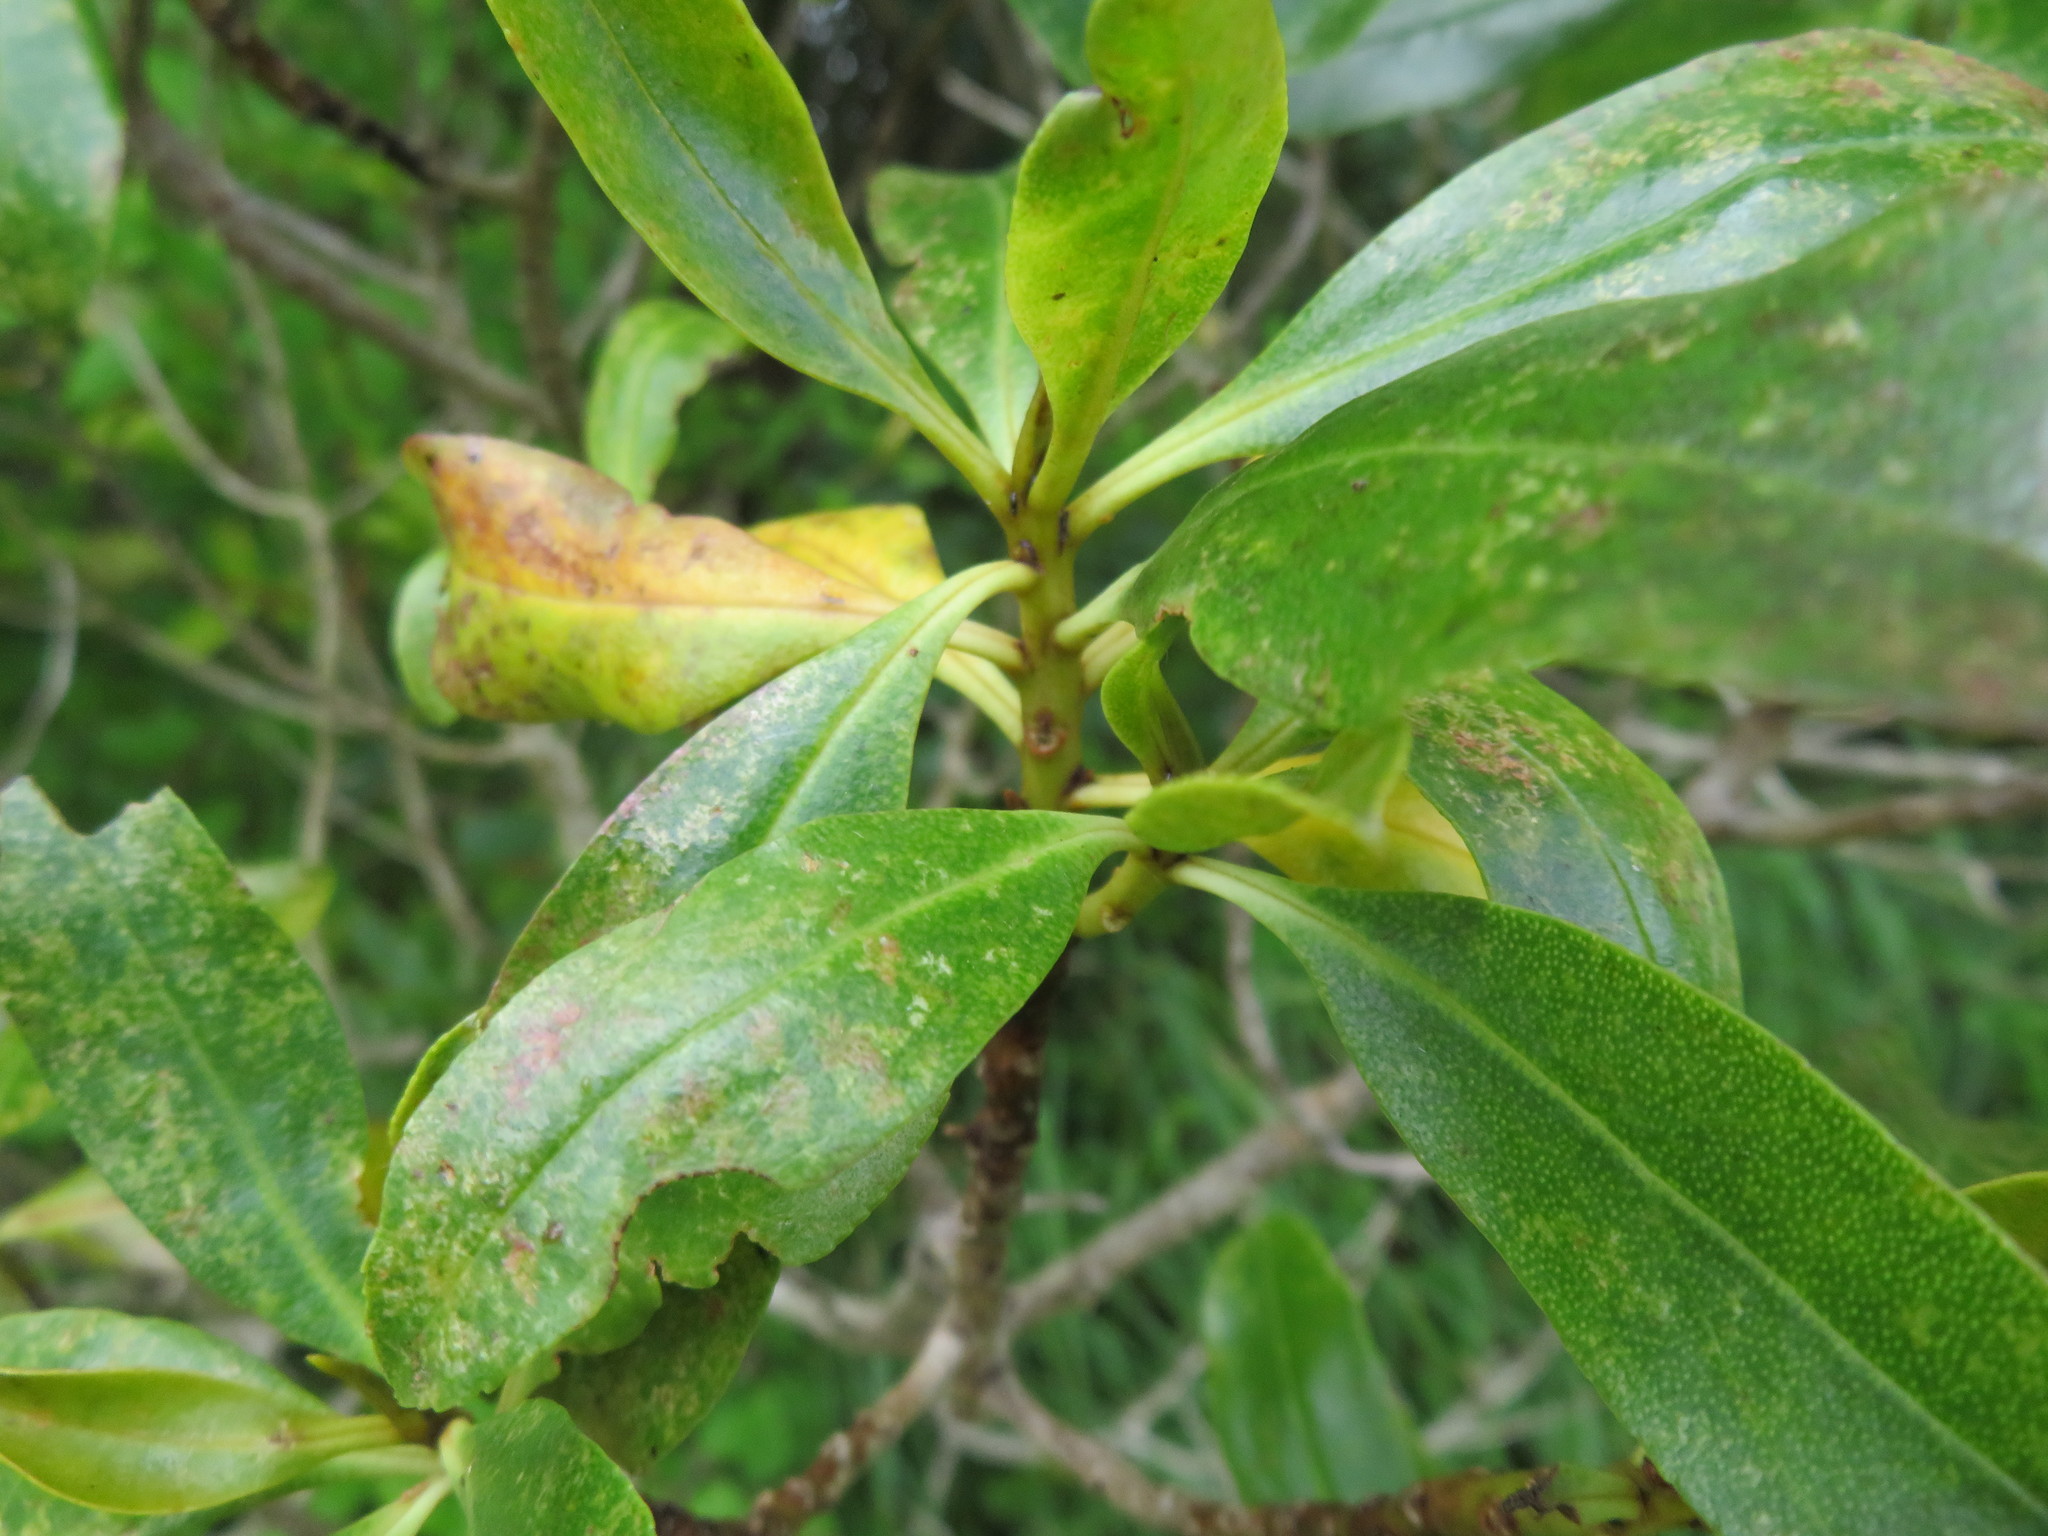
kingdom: Plantae
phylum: Tracheophyta
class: Magnoliopsida
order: Lamiales
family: Scrophulariaceae
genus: Myoporum
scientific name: Myoporum laetum
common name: Ngaio tree
